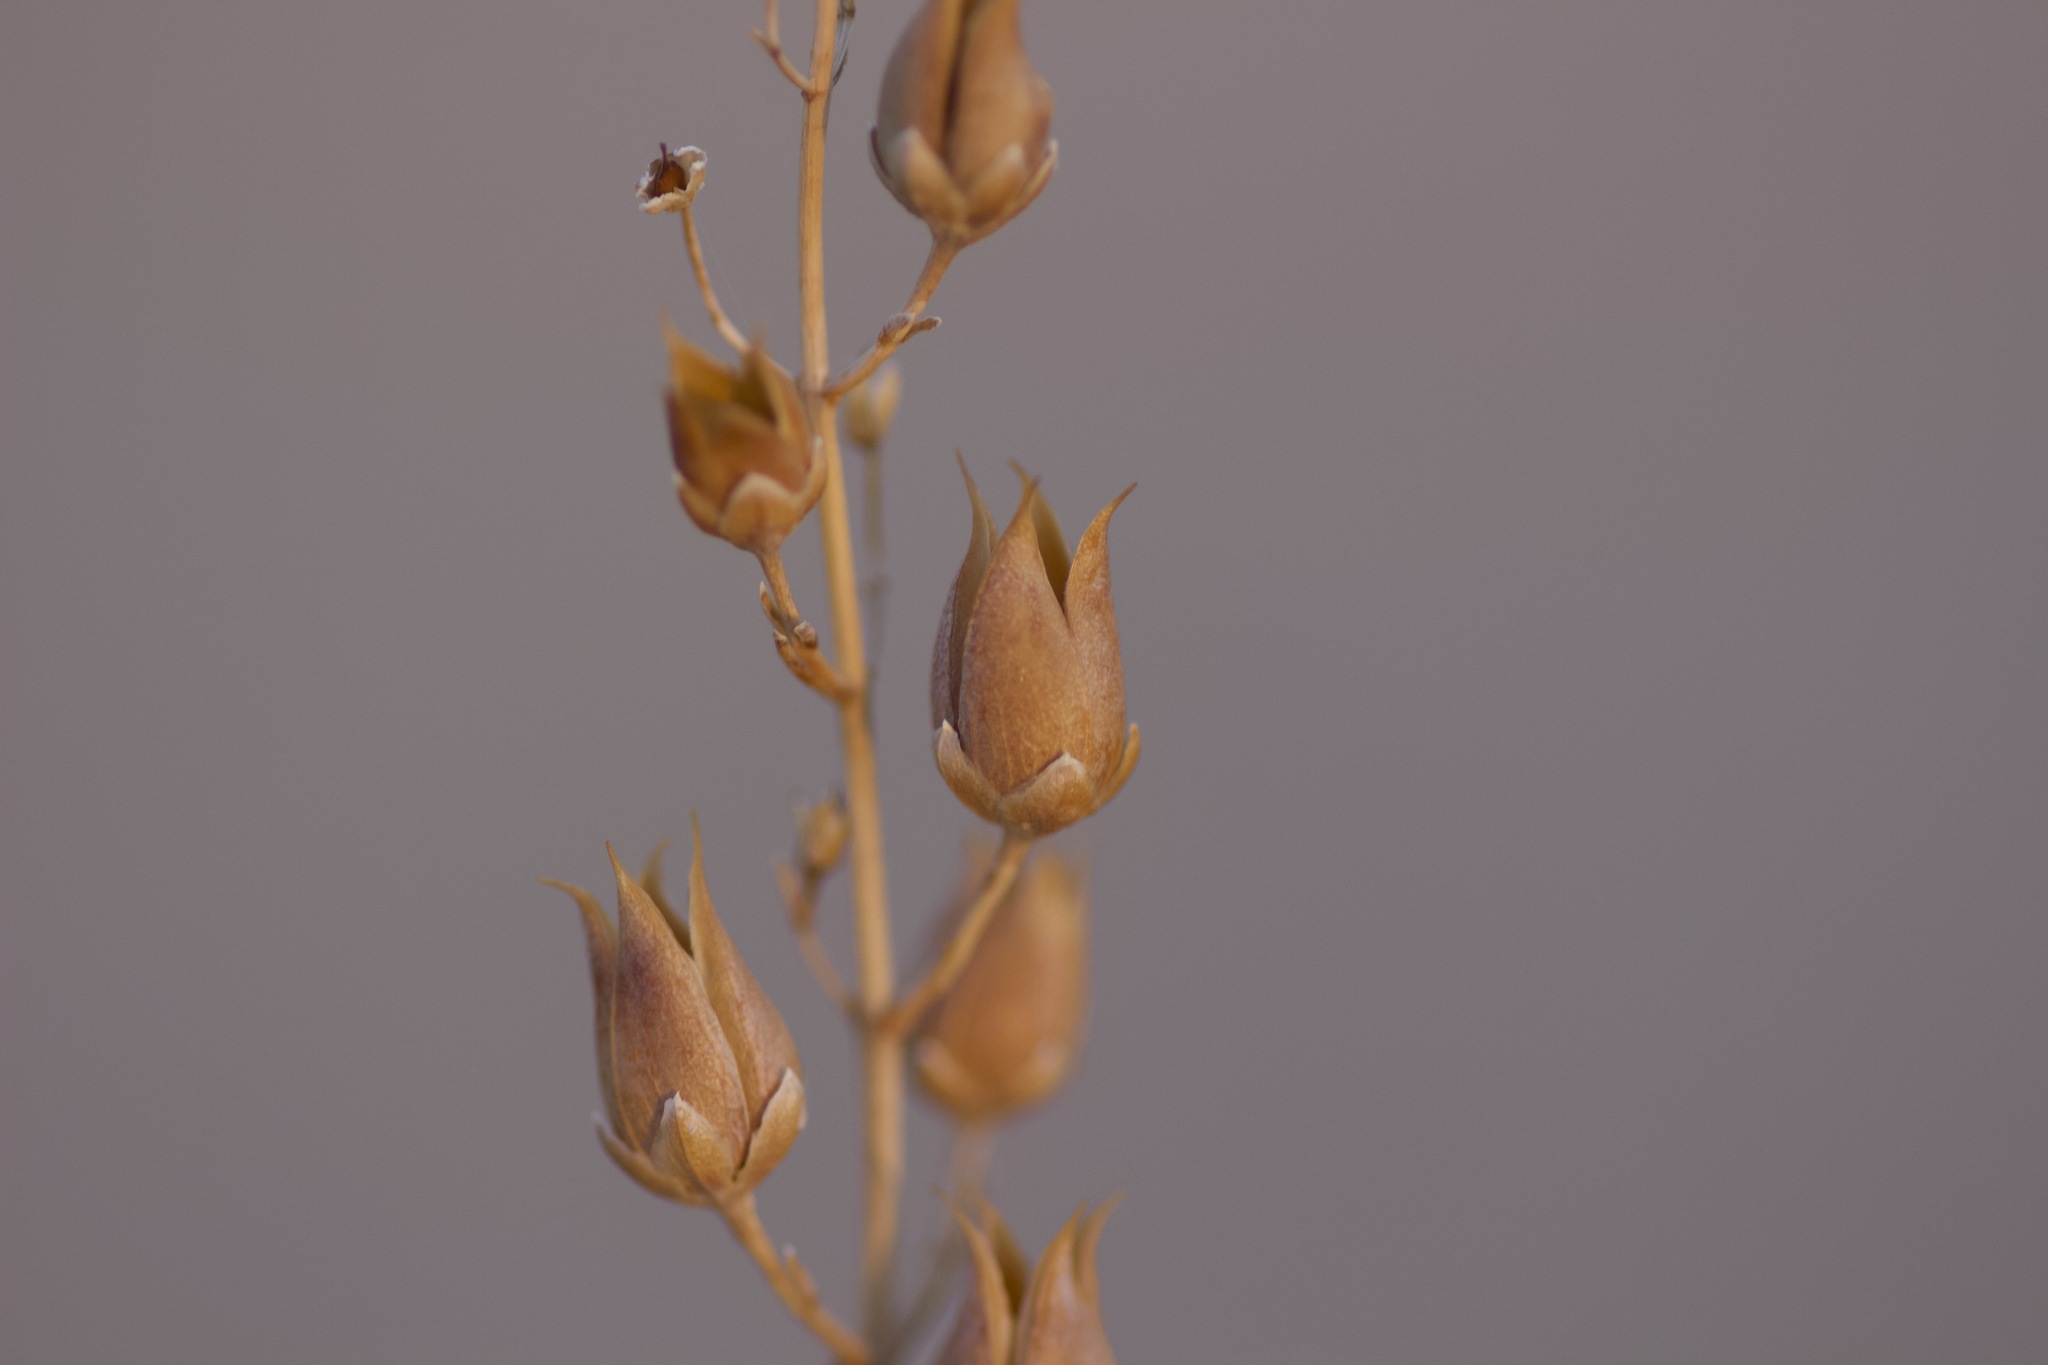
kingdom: Plantae
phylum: Tracheophyta
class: Magnoliopsida
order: Lamiales
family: Plantaginaceae
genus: Penstemon
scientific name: Penstemon thurberi
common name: Thurber's beardtongue
